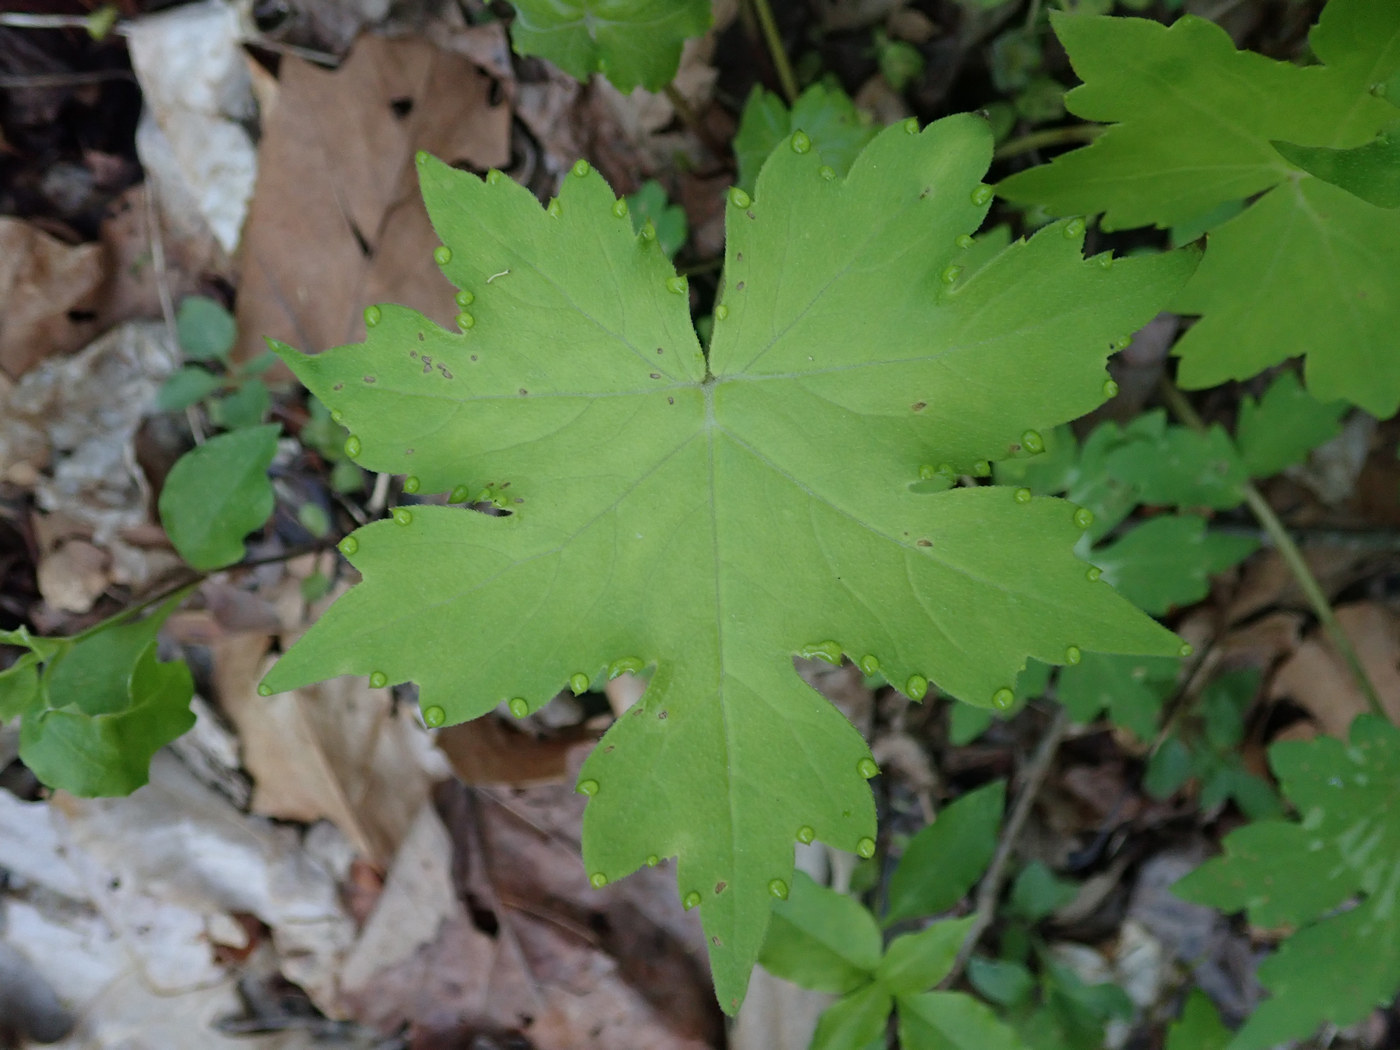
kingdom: Plantae
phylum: Tracheophyta
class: Magnoliopsida
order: Boraginales
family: Hydrophyllaceae
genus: Hydrophyllum
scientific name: Hydrophyllum canadense
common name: Canada waterleaf
